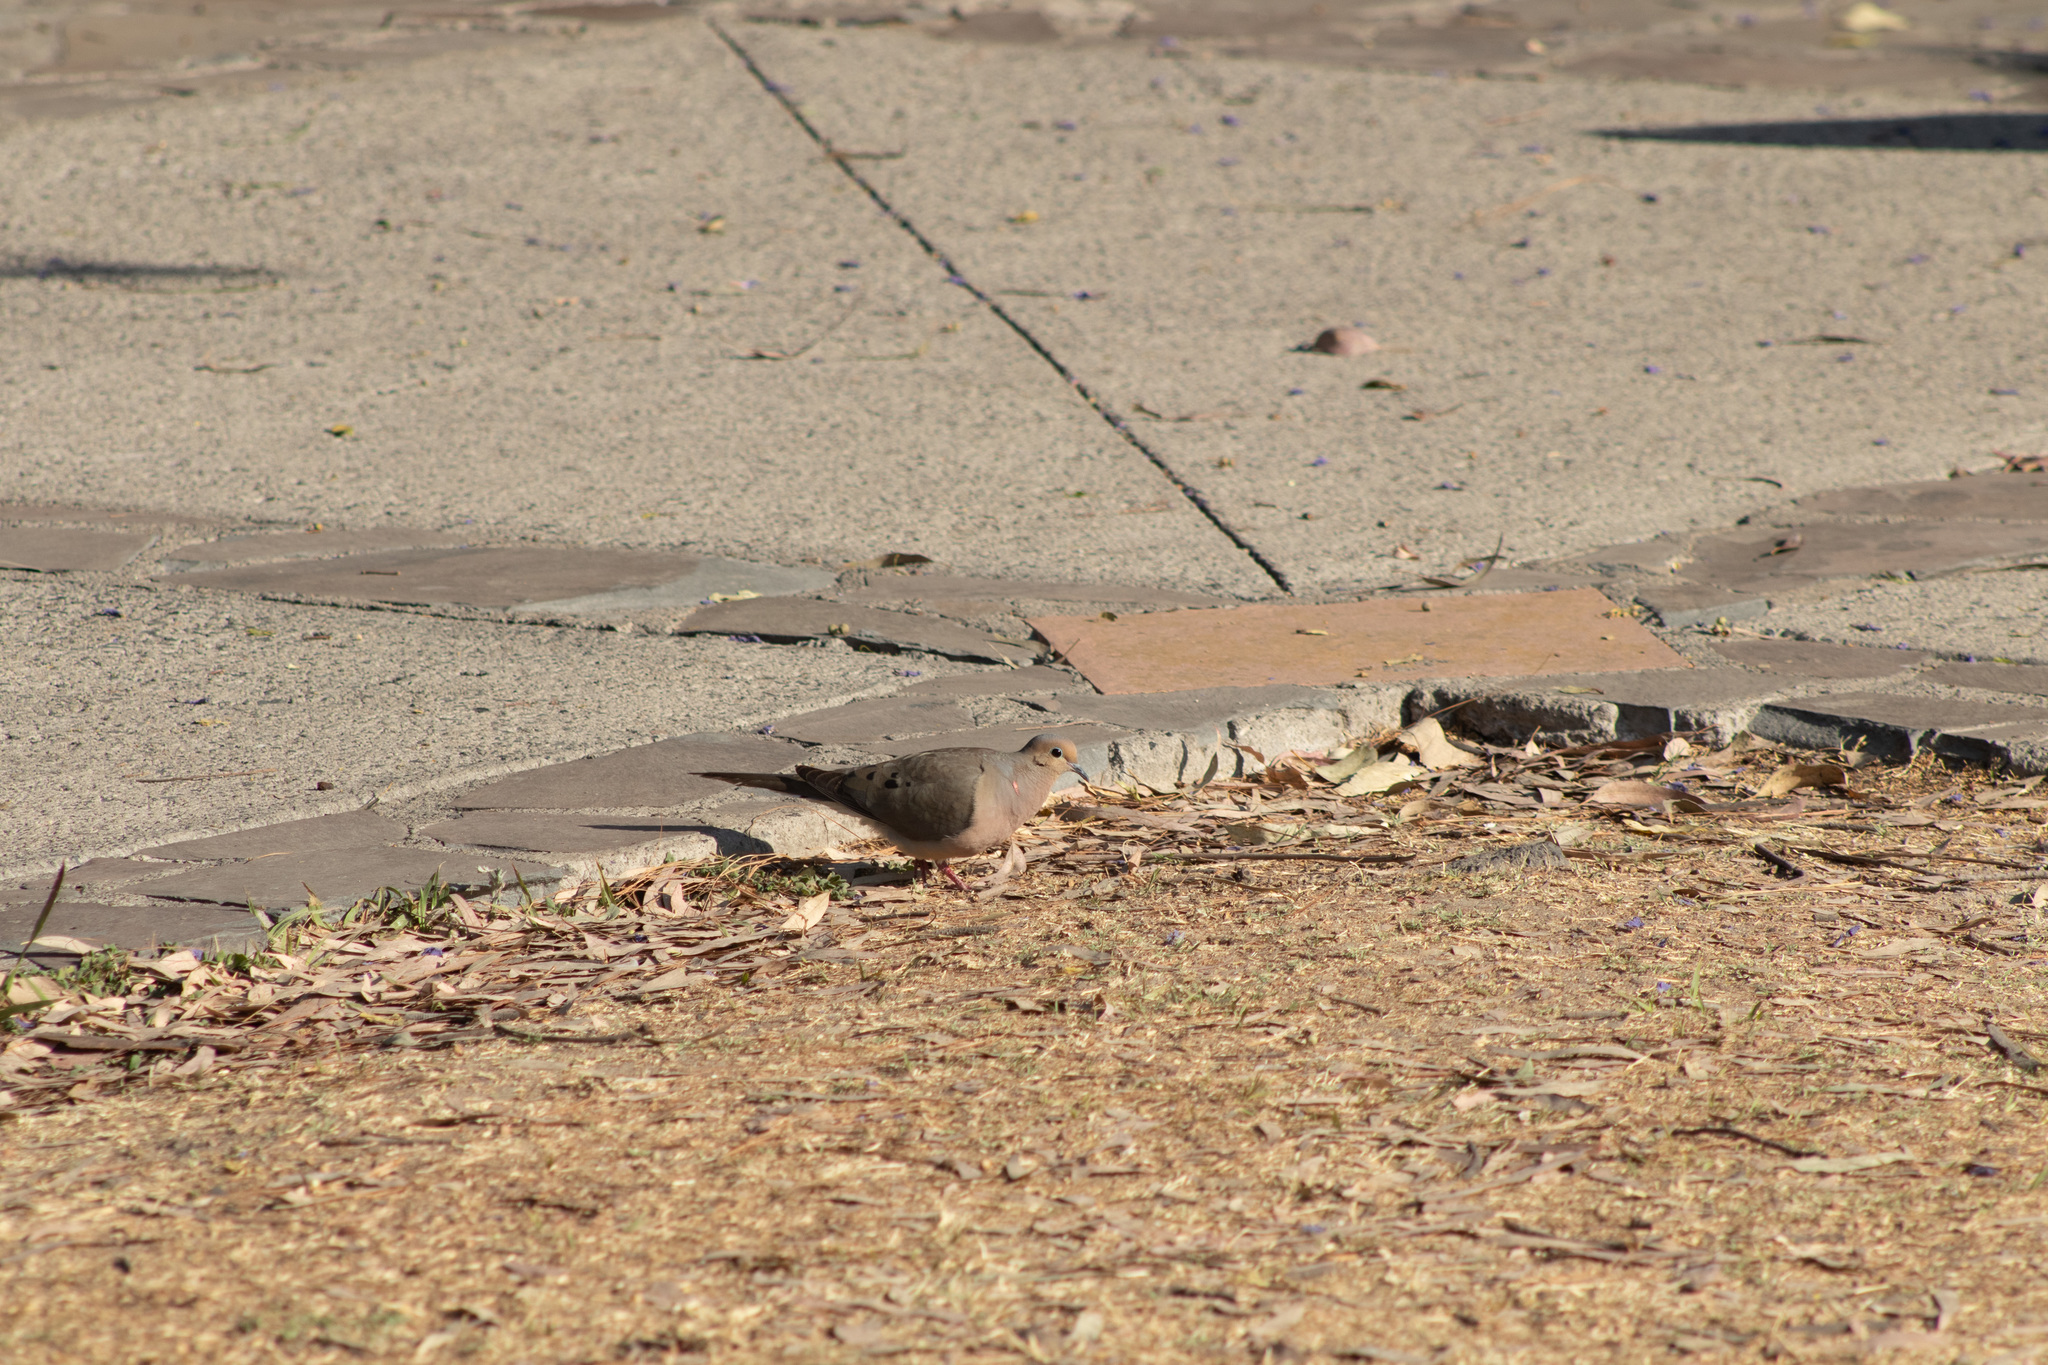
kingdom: Animalia
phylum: Chordata
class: Aves
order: Columbiformes
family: Columbidae
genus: Zenaida
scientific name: Zenaida macroura
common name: Mourning dove
